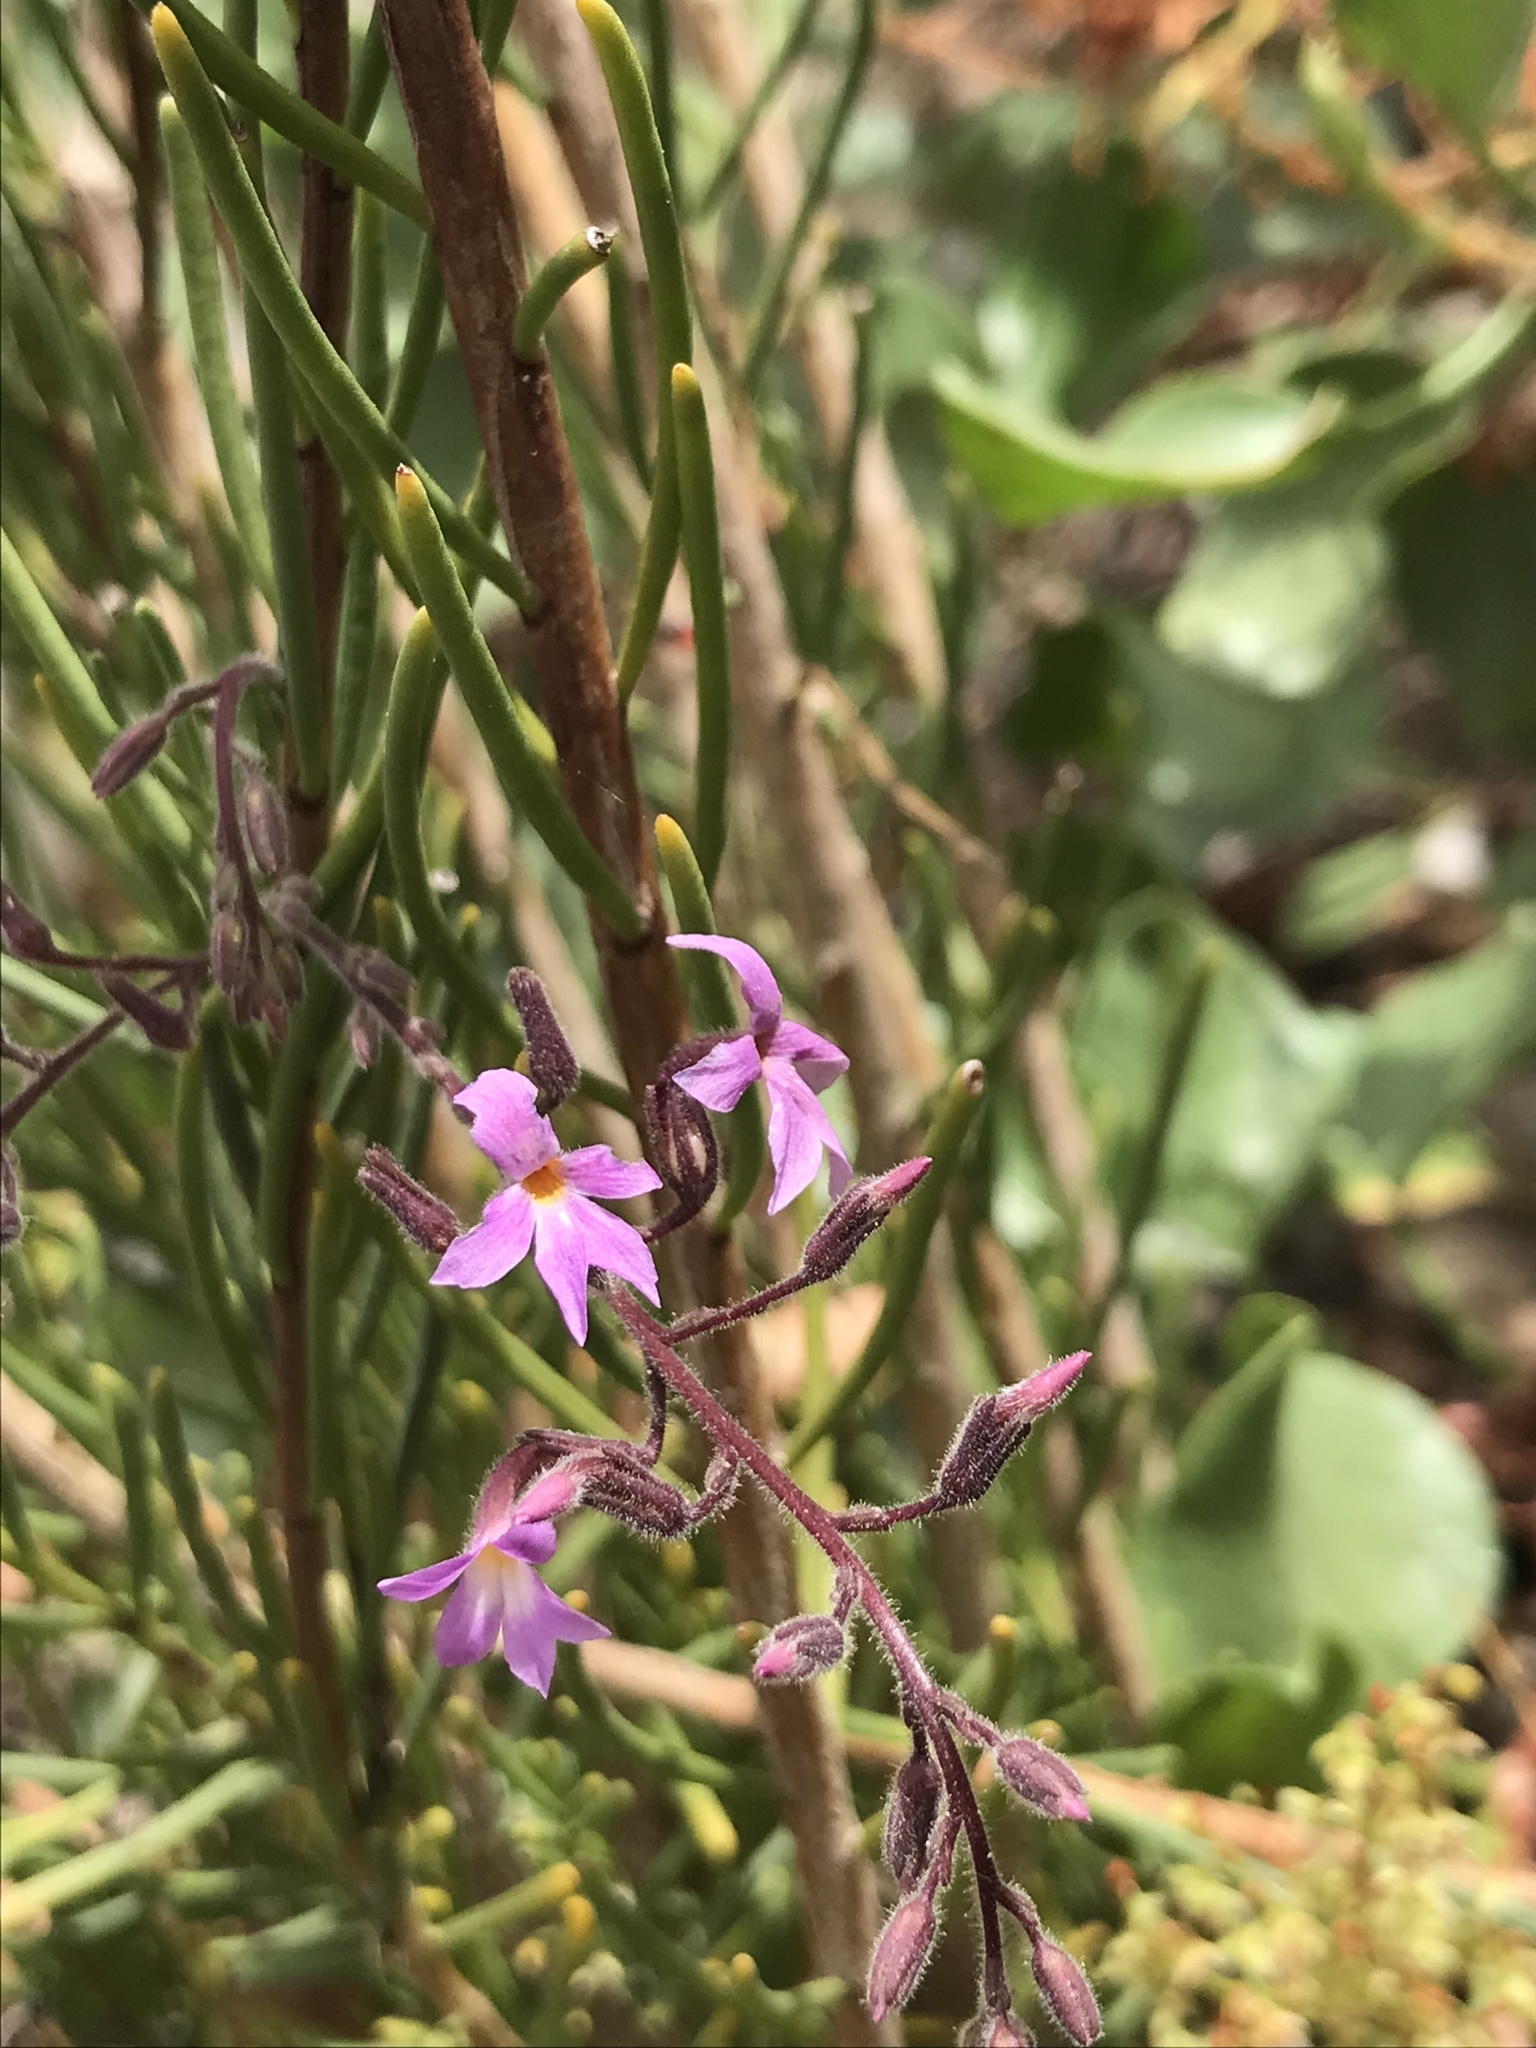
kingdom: Plantae
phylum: Tracheophyta
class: Magnoliopsida
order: Lamiales
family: Plantaginaceae
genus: Campylanthus
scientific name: Campylanthus salsoloides
